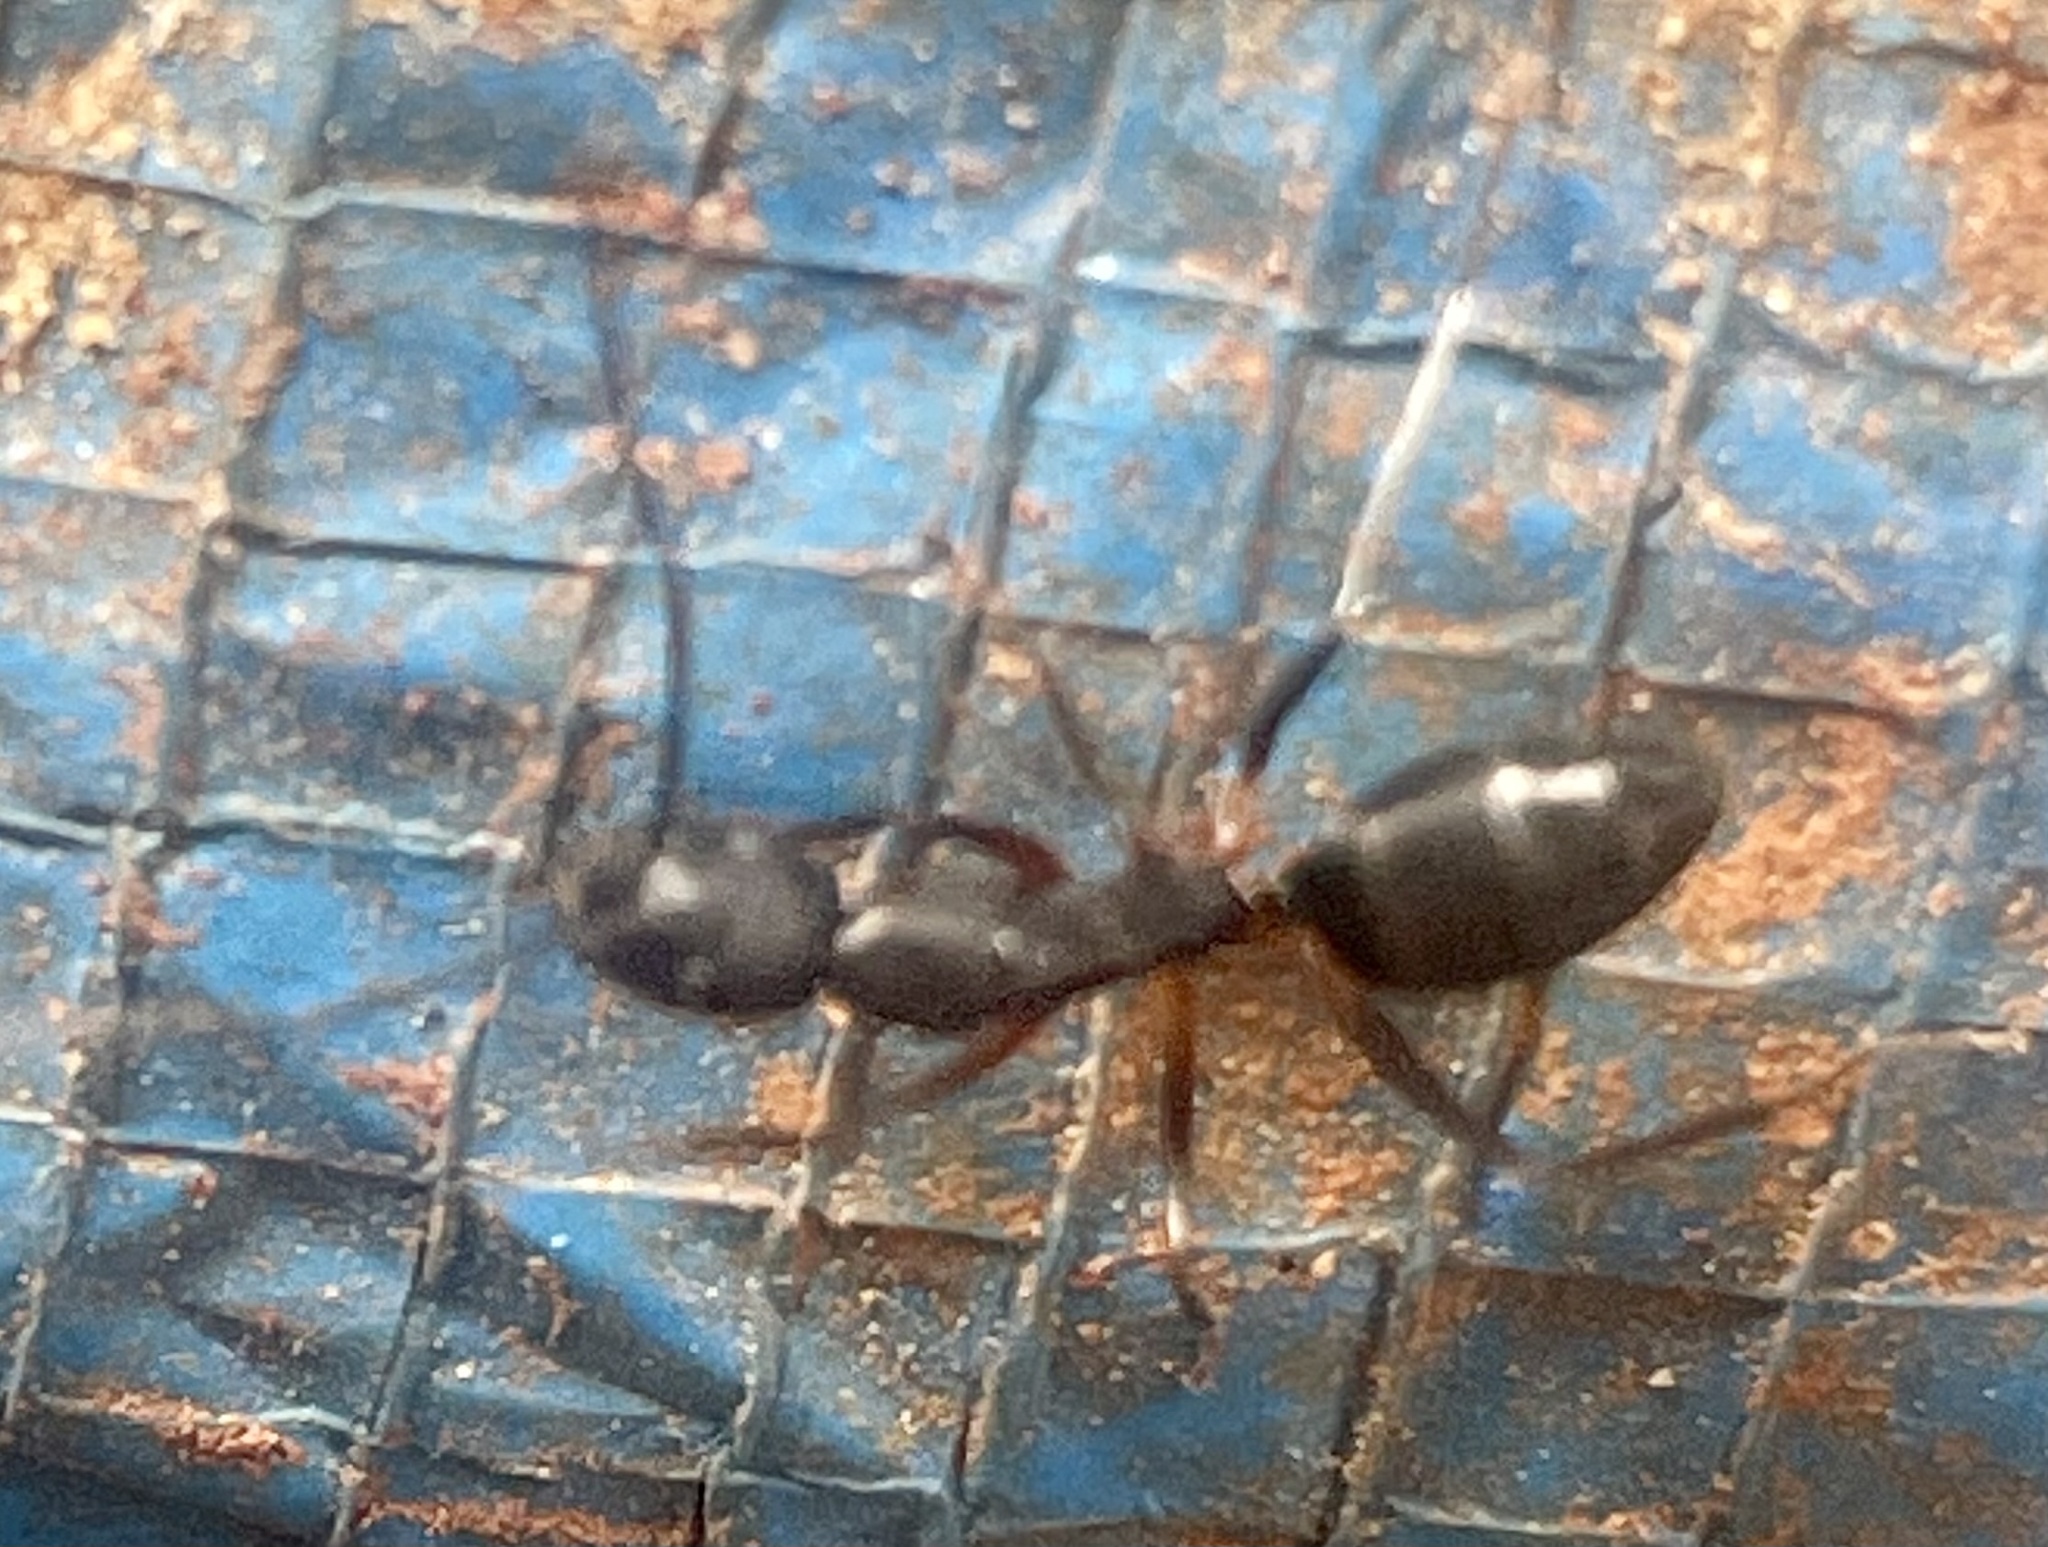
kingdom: Animalia
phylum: Arthropoda
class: Insecta
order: Hymenoptera
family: Formicidae
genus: Camponotus
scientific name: Camponotus compressus
